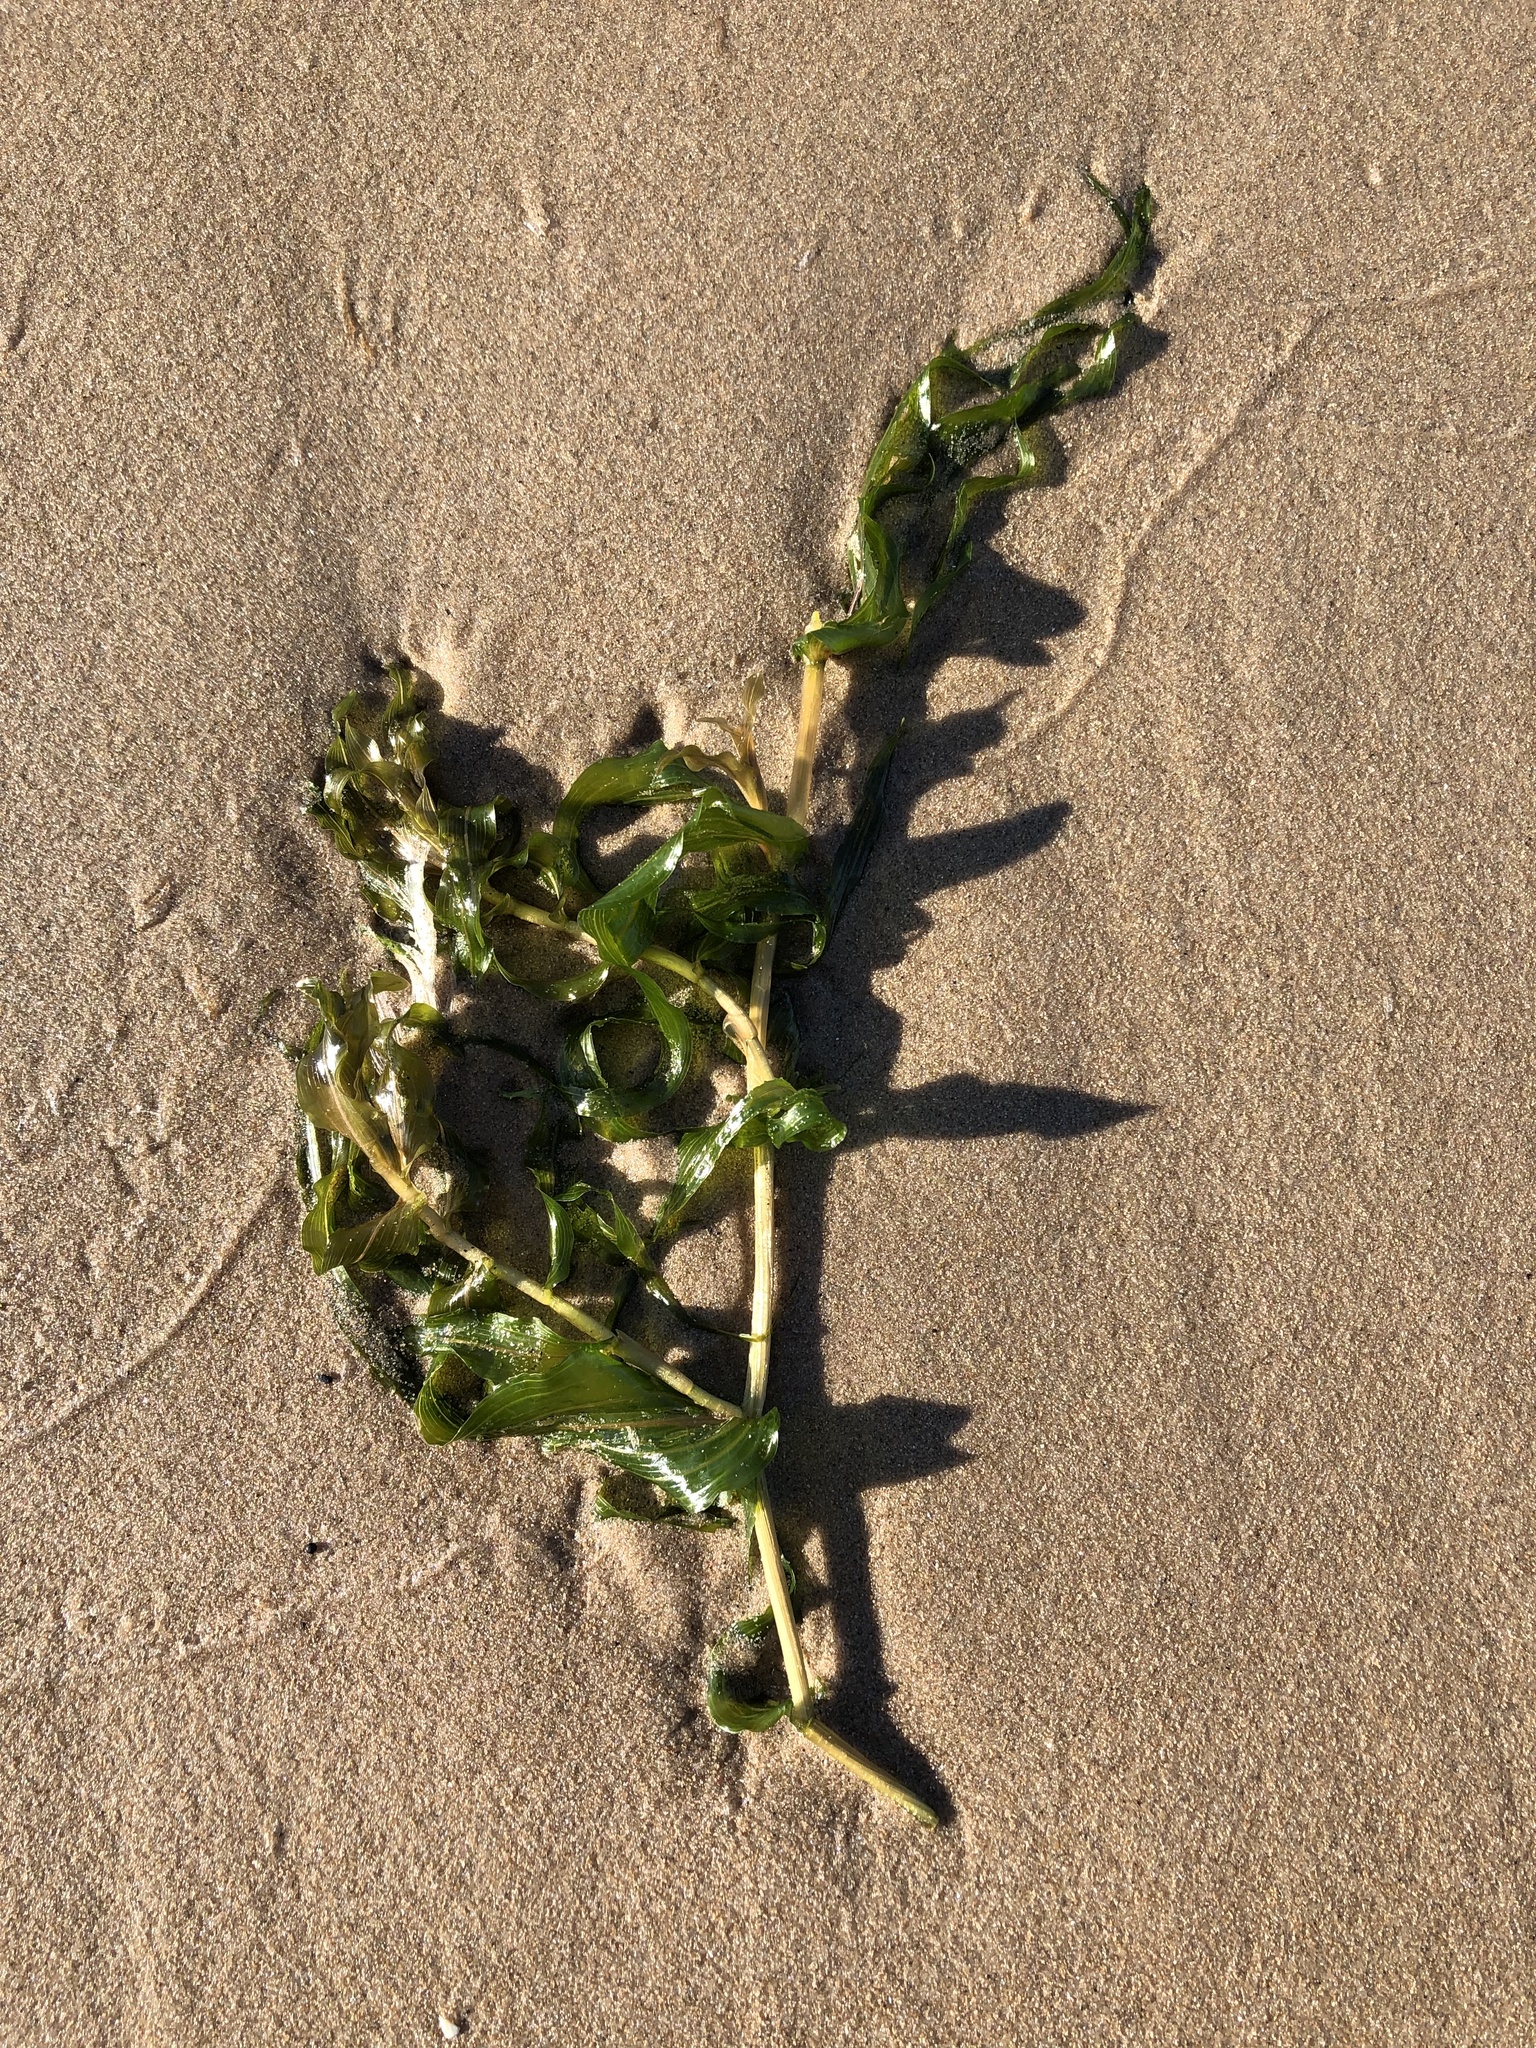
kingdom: Plantae
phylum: Tracheophyta
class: Liliopsida
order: Alismatales
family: Potamogetonaceae
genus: Potamogeton
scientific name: Potamogeton richardsonii
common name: Richardson's pondweed
